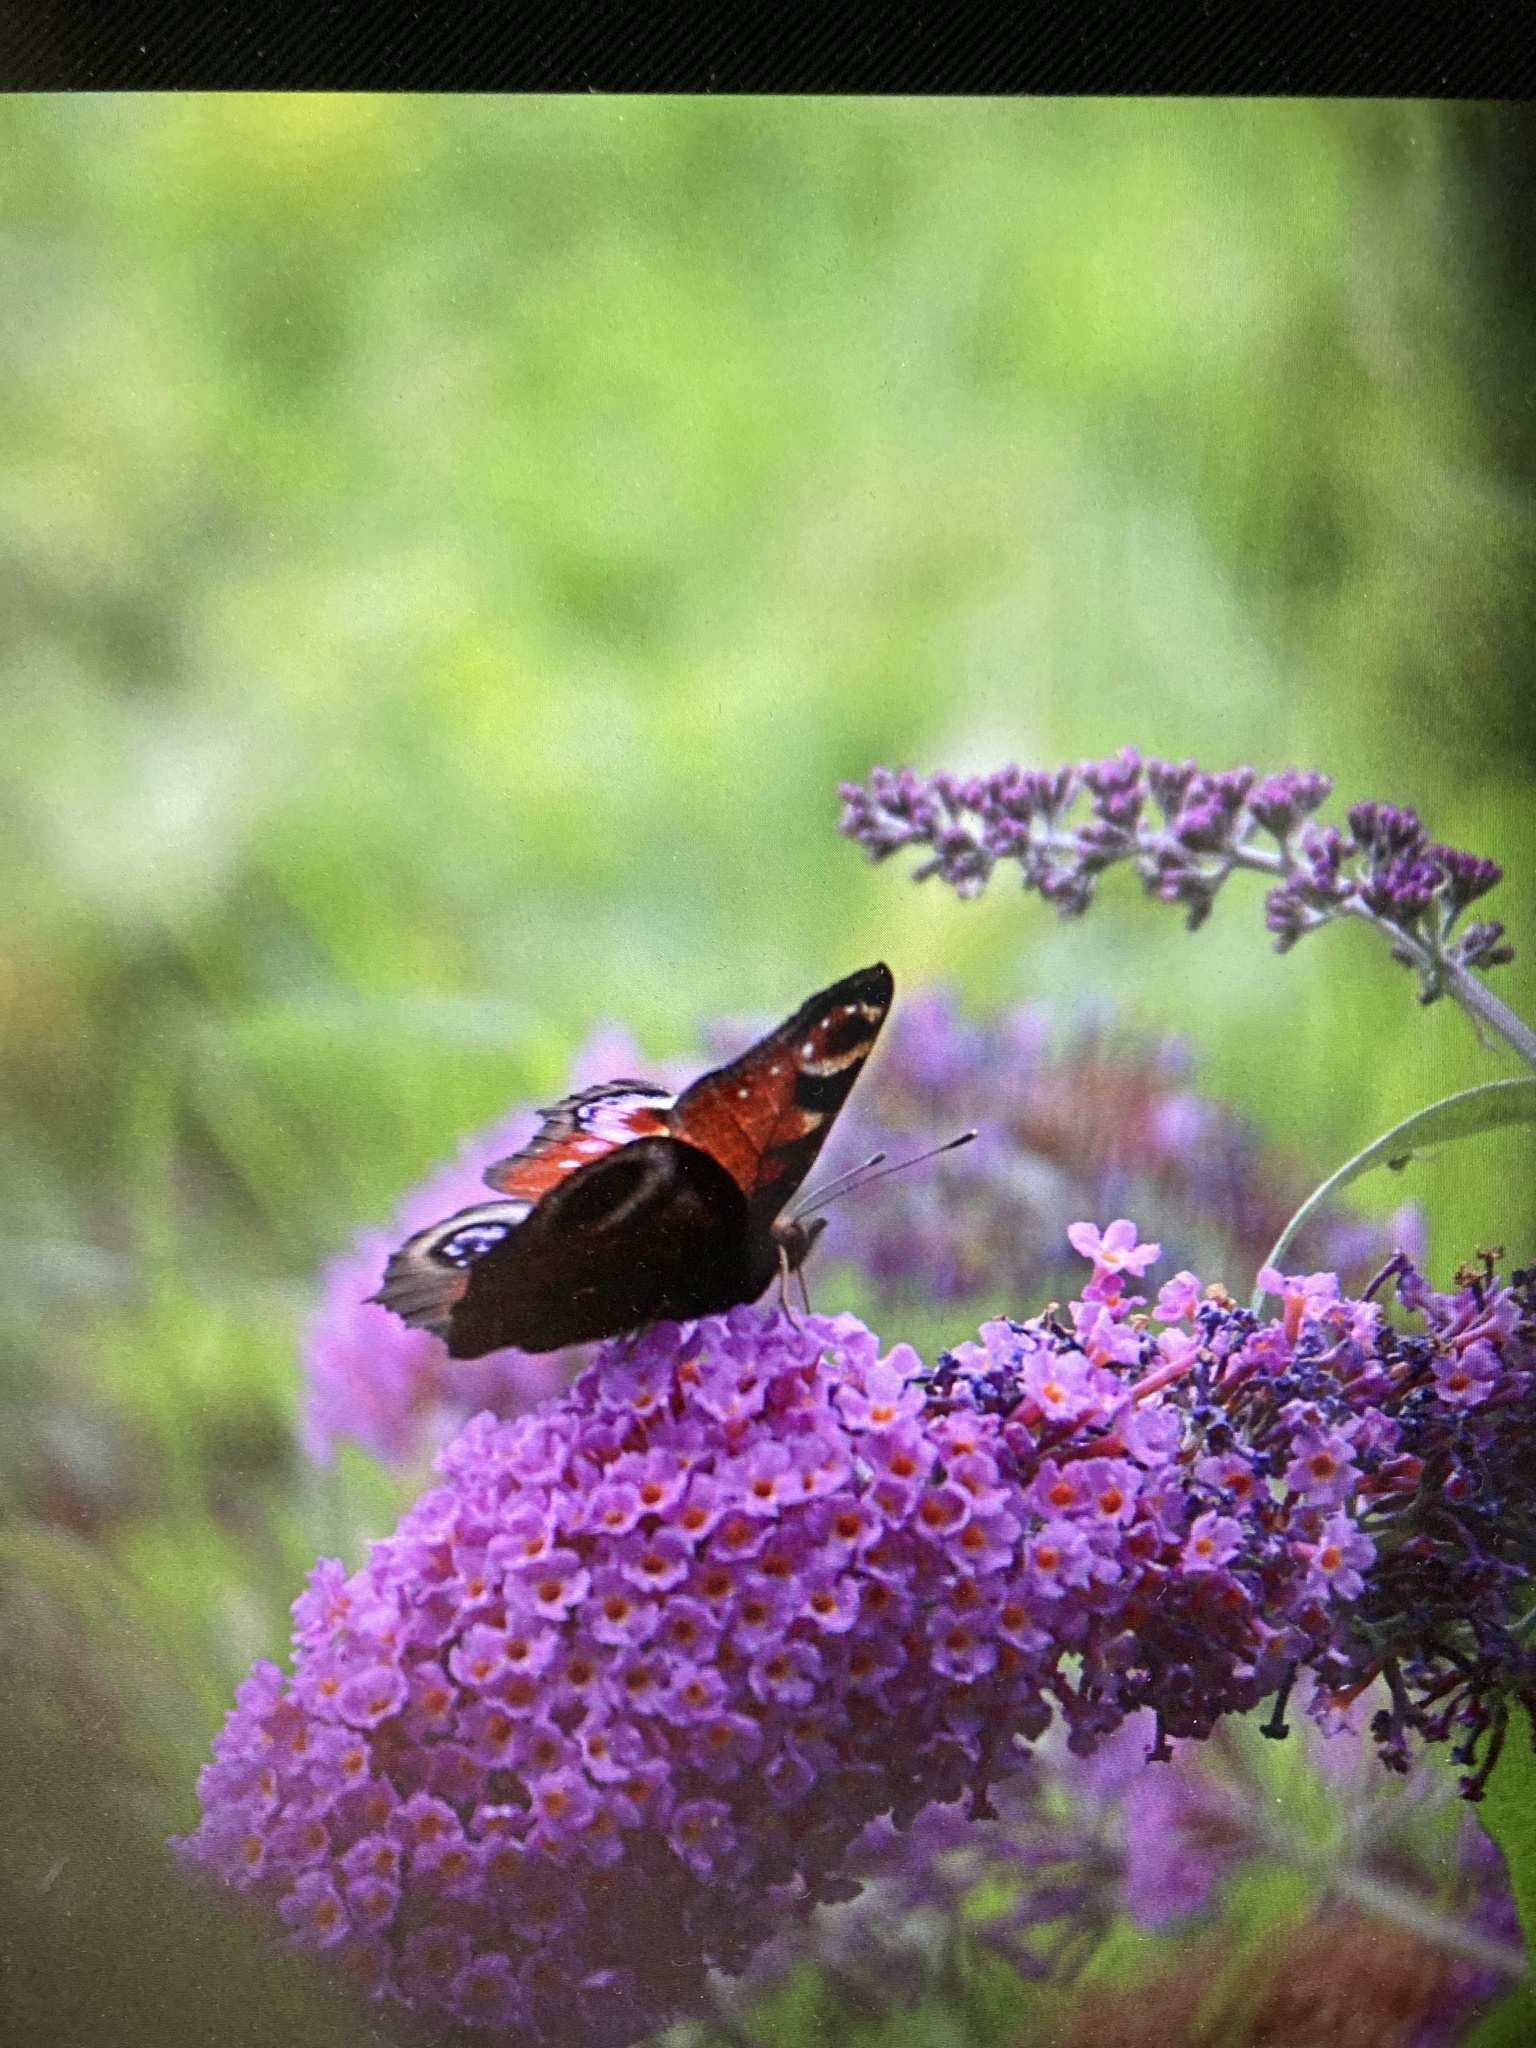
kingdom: Animalia
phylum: Arthropoda
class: Insecta
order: Lepidoptera
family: Nymphalidae
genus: Aglais
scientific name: Aglais io
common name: Peacock
